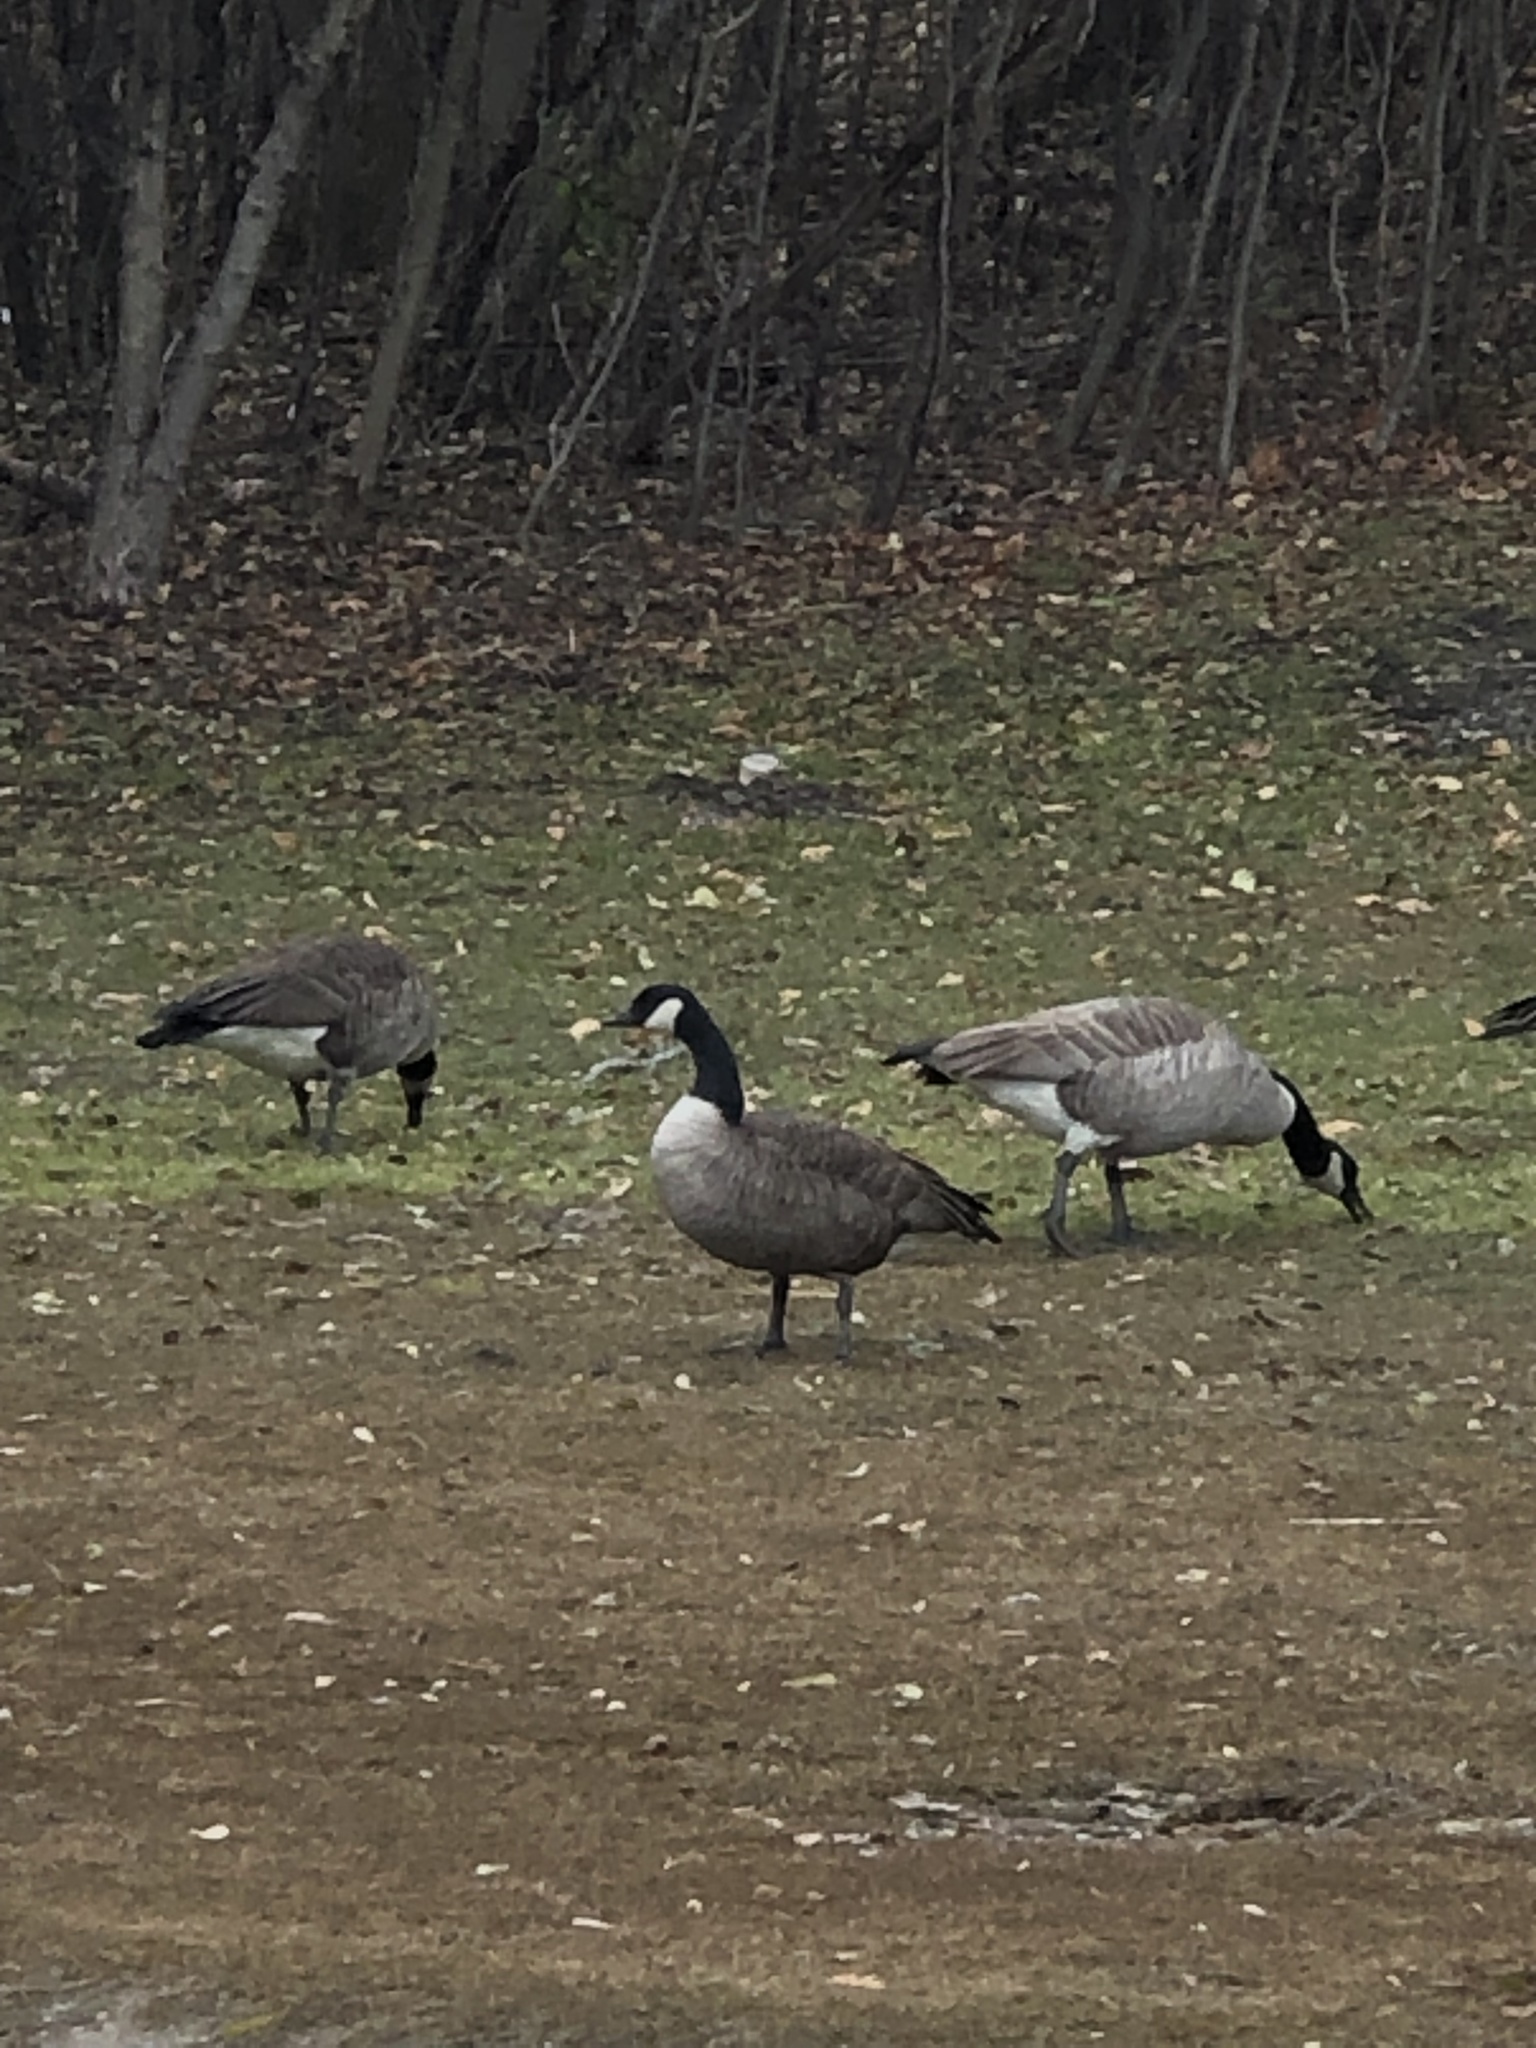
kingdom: Animalia
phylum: Chordata
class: Aves
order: Anseriformes
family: Anatidae
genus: Branta
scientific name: Branta canadensis
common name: Canada goose
